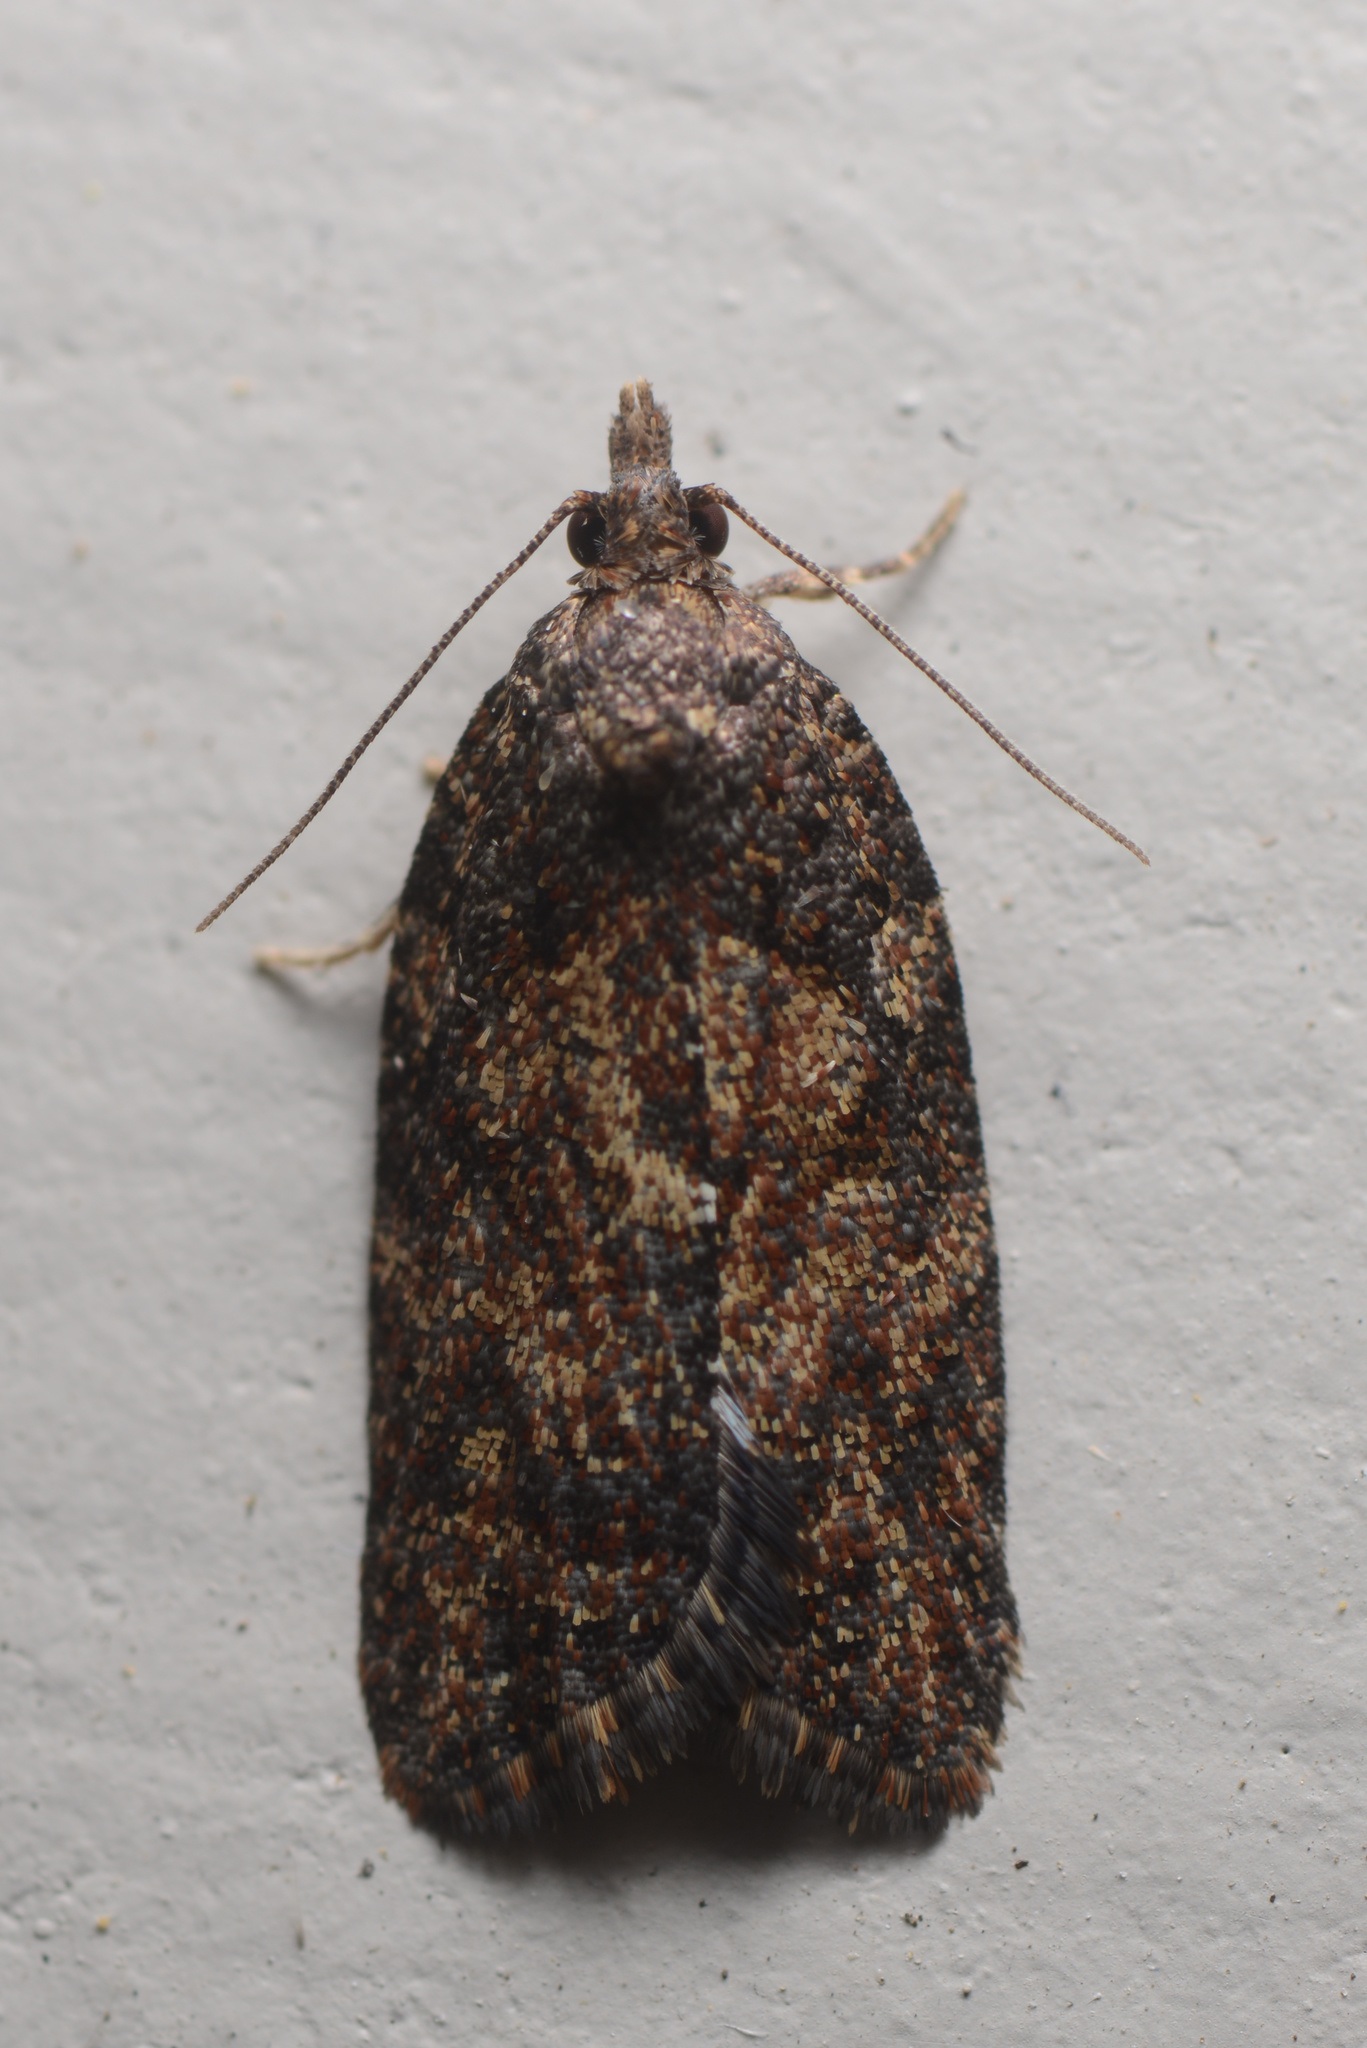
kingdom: Animalia
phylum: Arthropoda
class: Insecta
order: Lepidoptera
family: Tortricidae
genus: Capua
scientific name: Capua intractana
